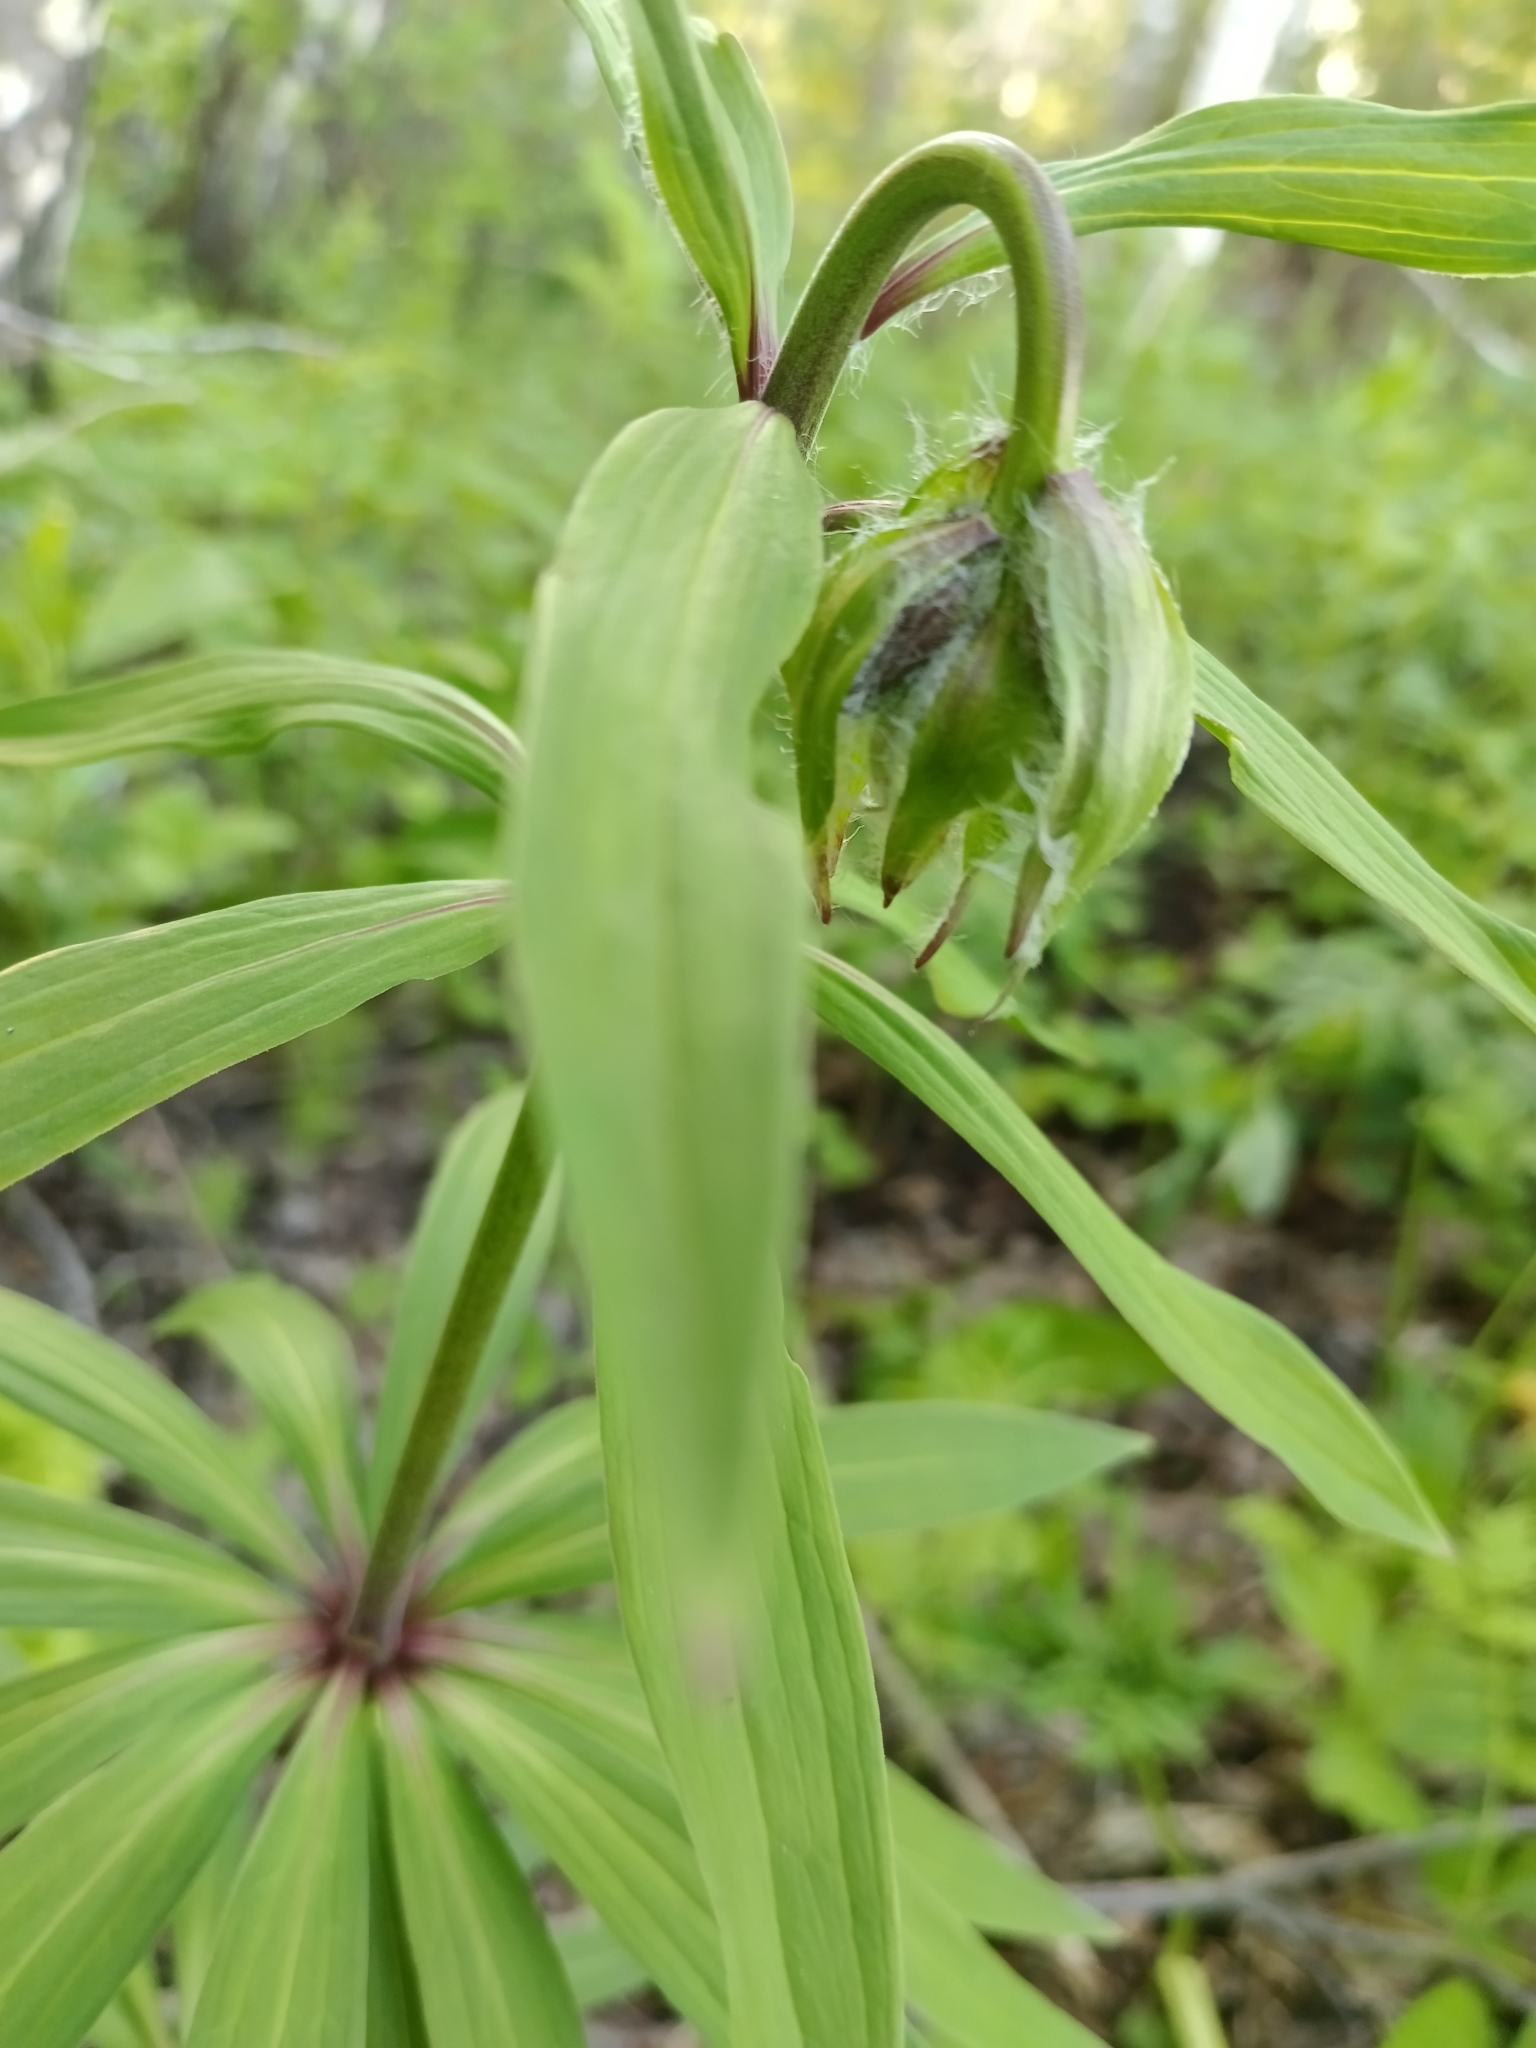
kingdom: Plantae
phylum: Tracheophyta
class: Liliopsida
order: Liliales
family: Liliaceae
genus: Lilium
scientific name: Lilium martagon
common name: Martagon lily
